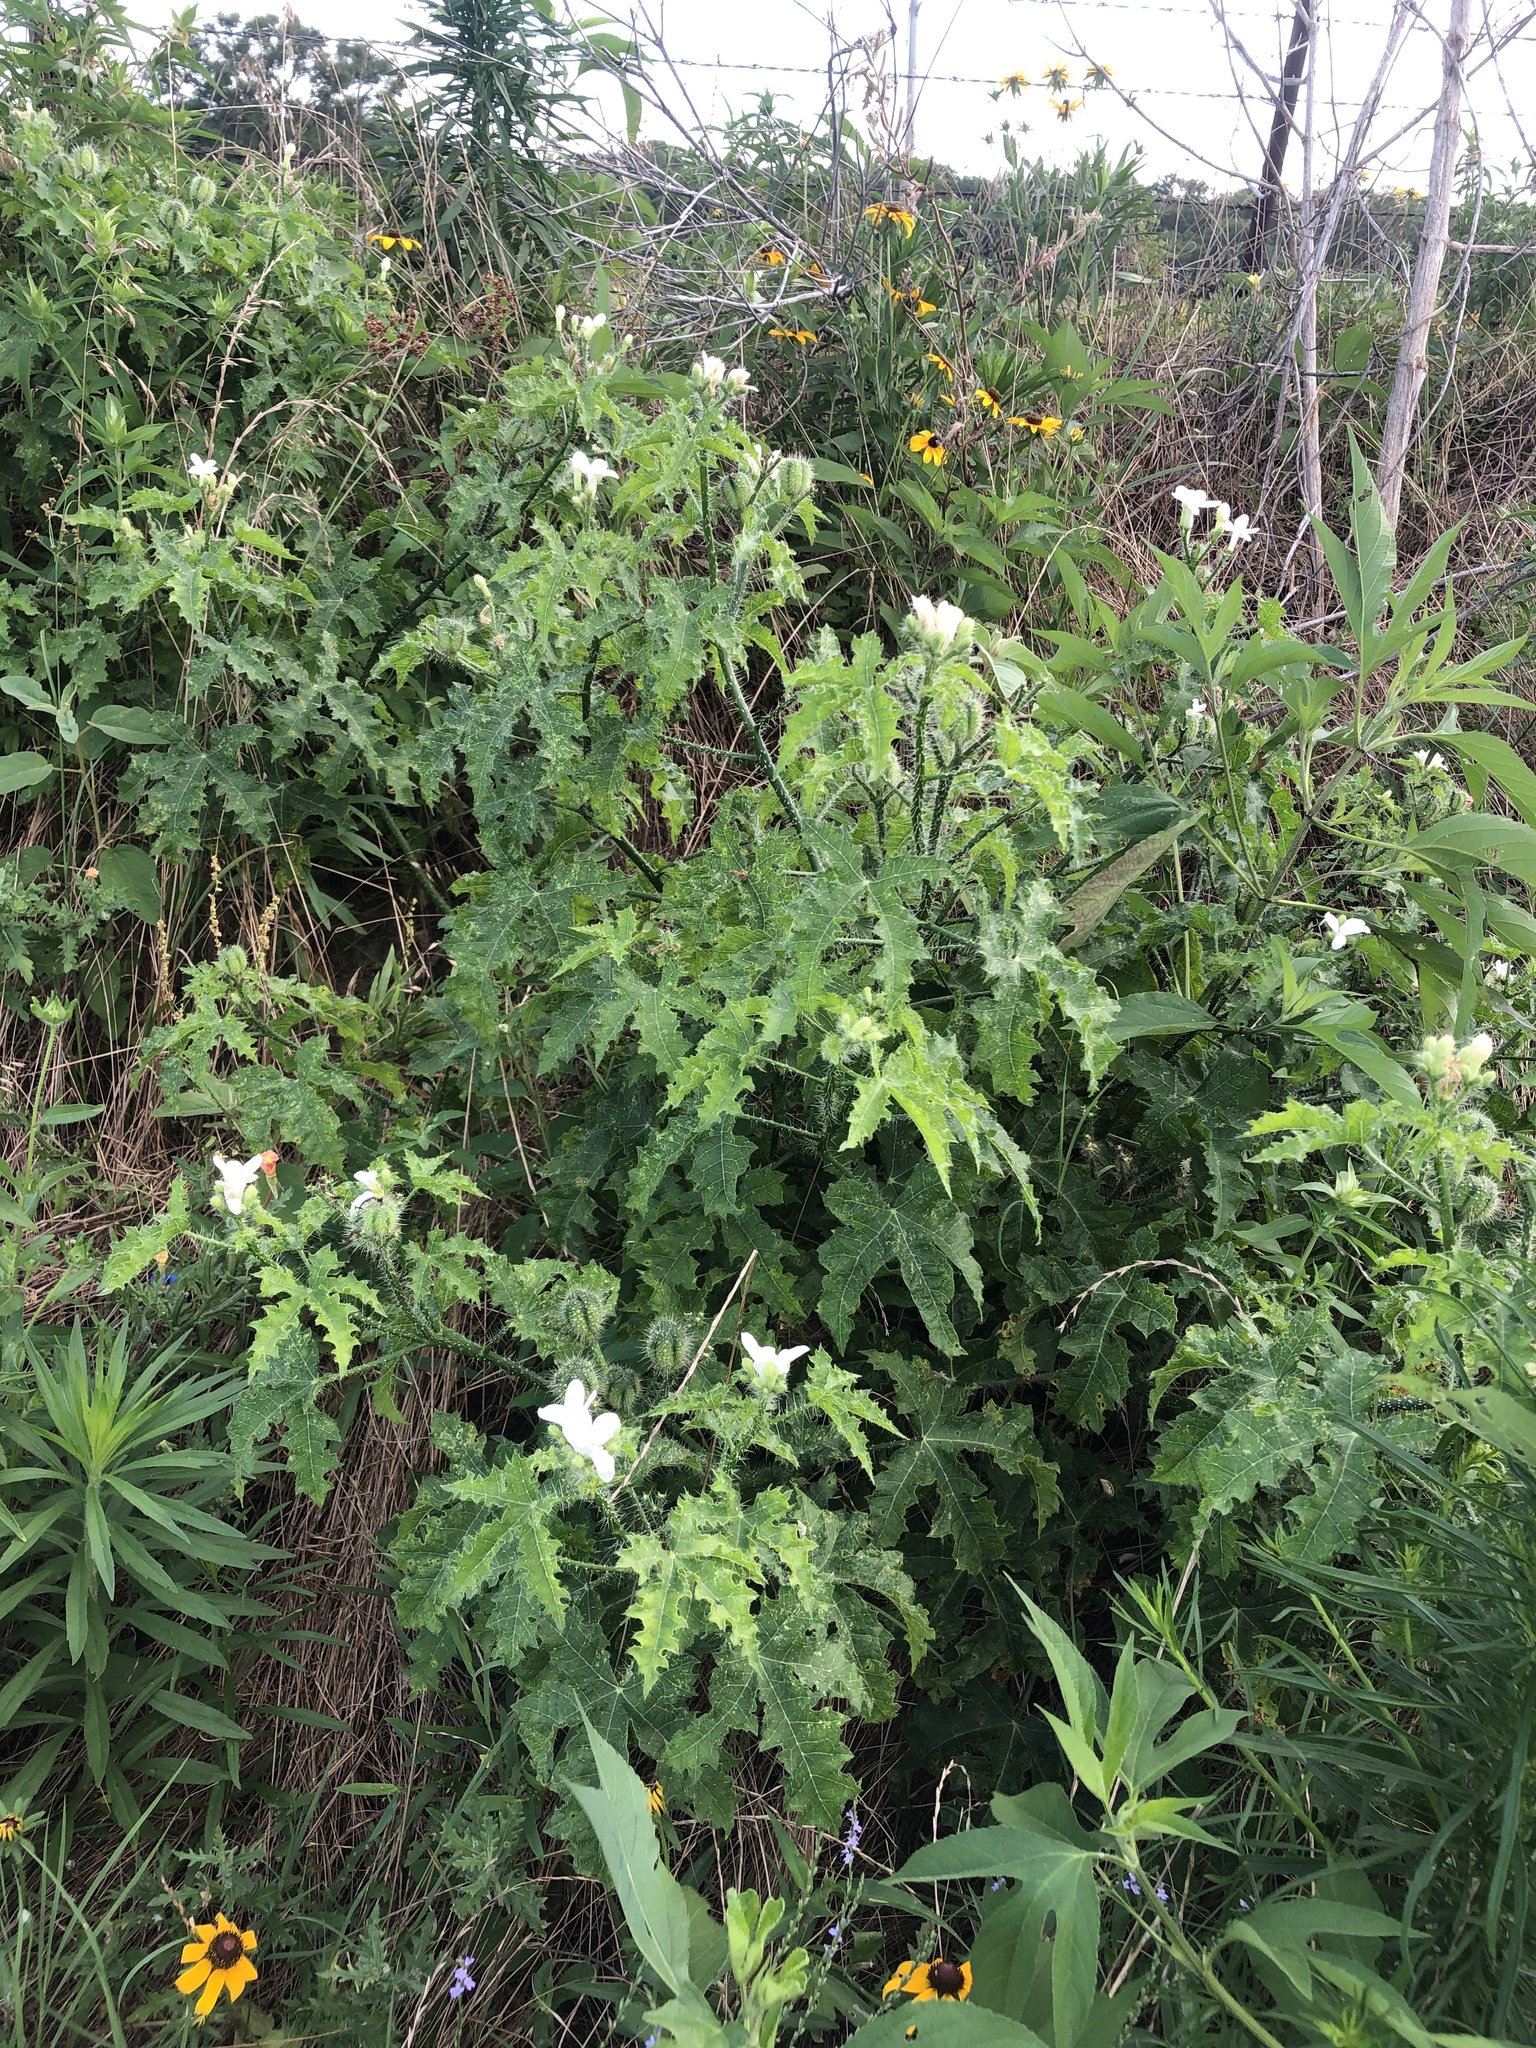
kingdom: Plantae
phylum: Tracheophyta
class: Magnoliopsida
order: Malpighiales
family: Euphorbiaceae
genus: Cnidoscolus
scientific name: Cnidoscolus texanus
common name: Texas bull-nettle
